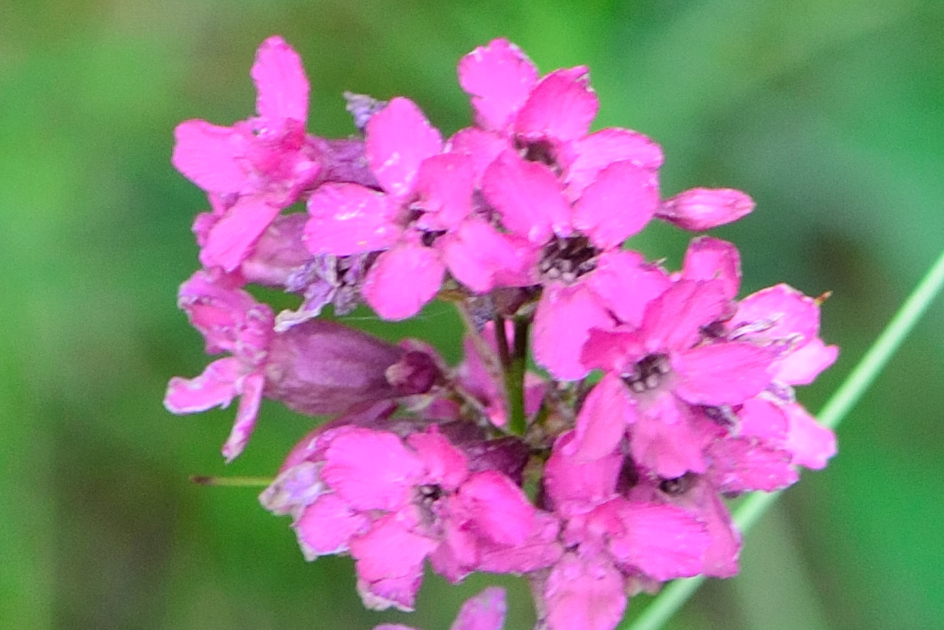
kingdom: Plantae
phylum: Tracheophyta
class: Magnoliopsida
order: Caryophyllales
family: Caryophyllaceae
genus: Viscaria
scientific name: Viscaria vulgaris
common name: Clammy campion
